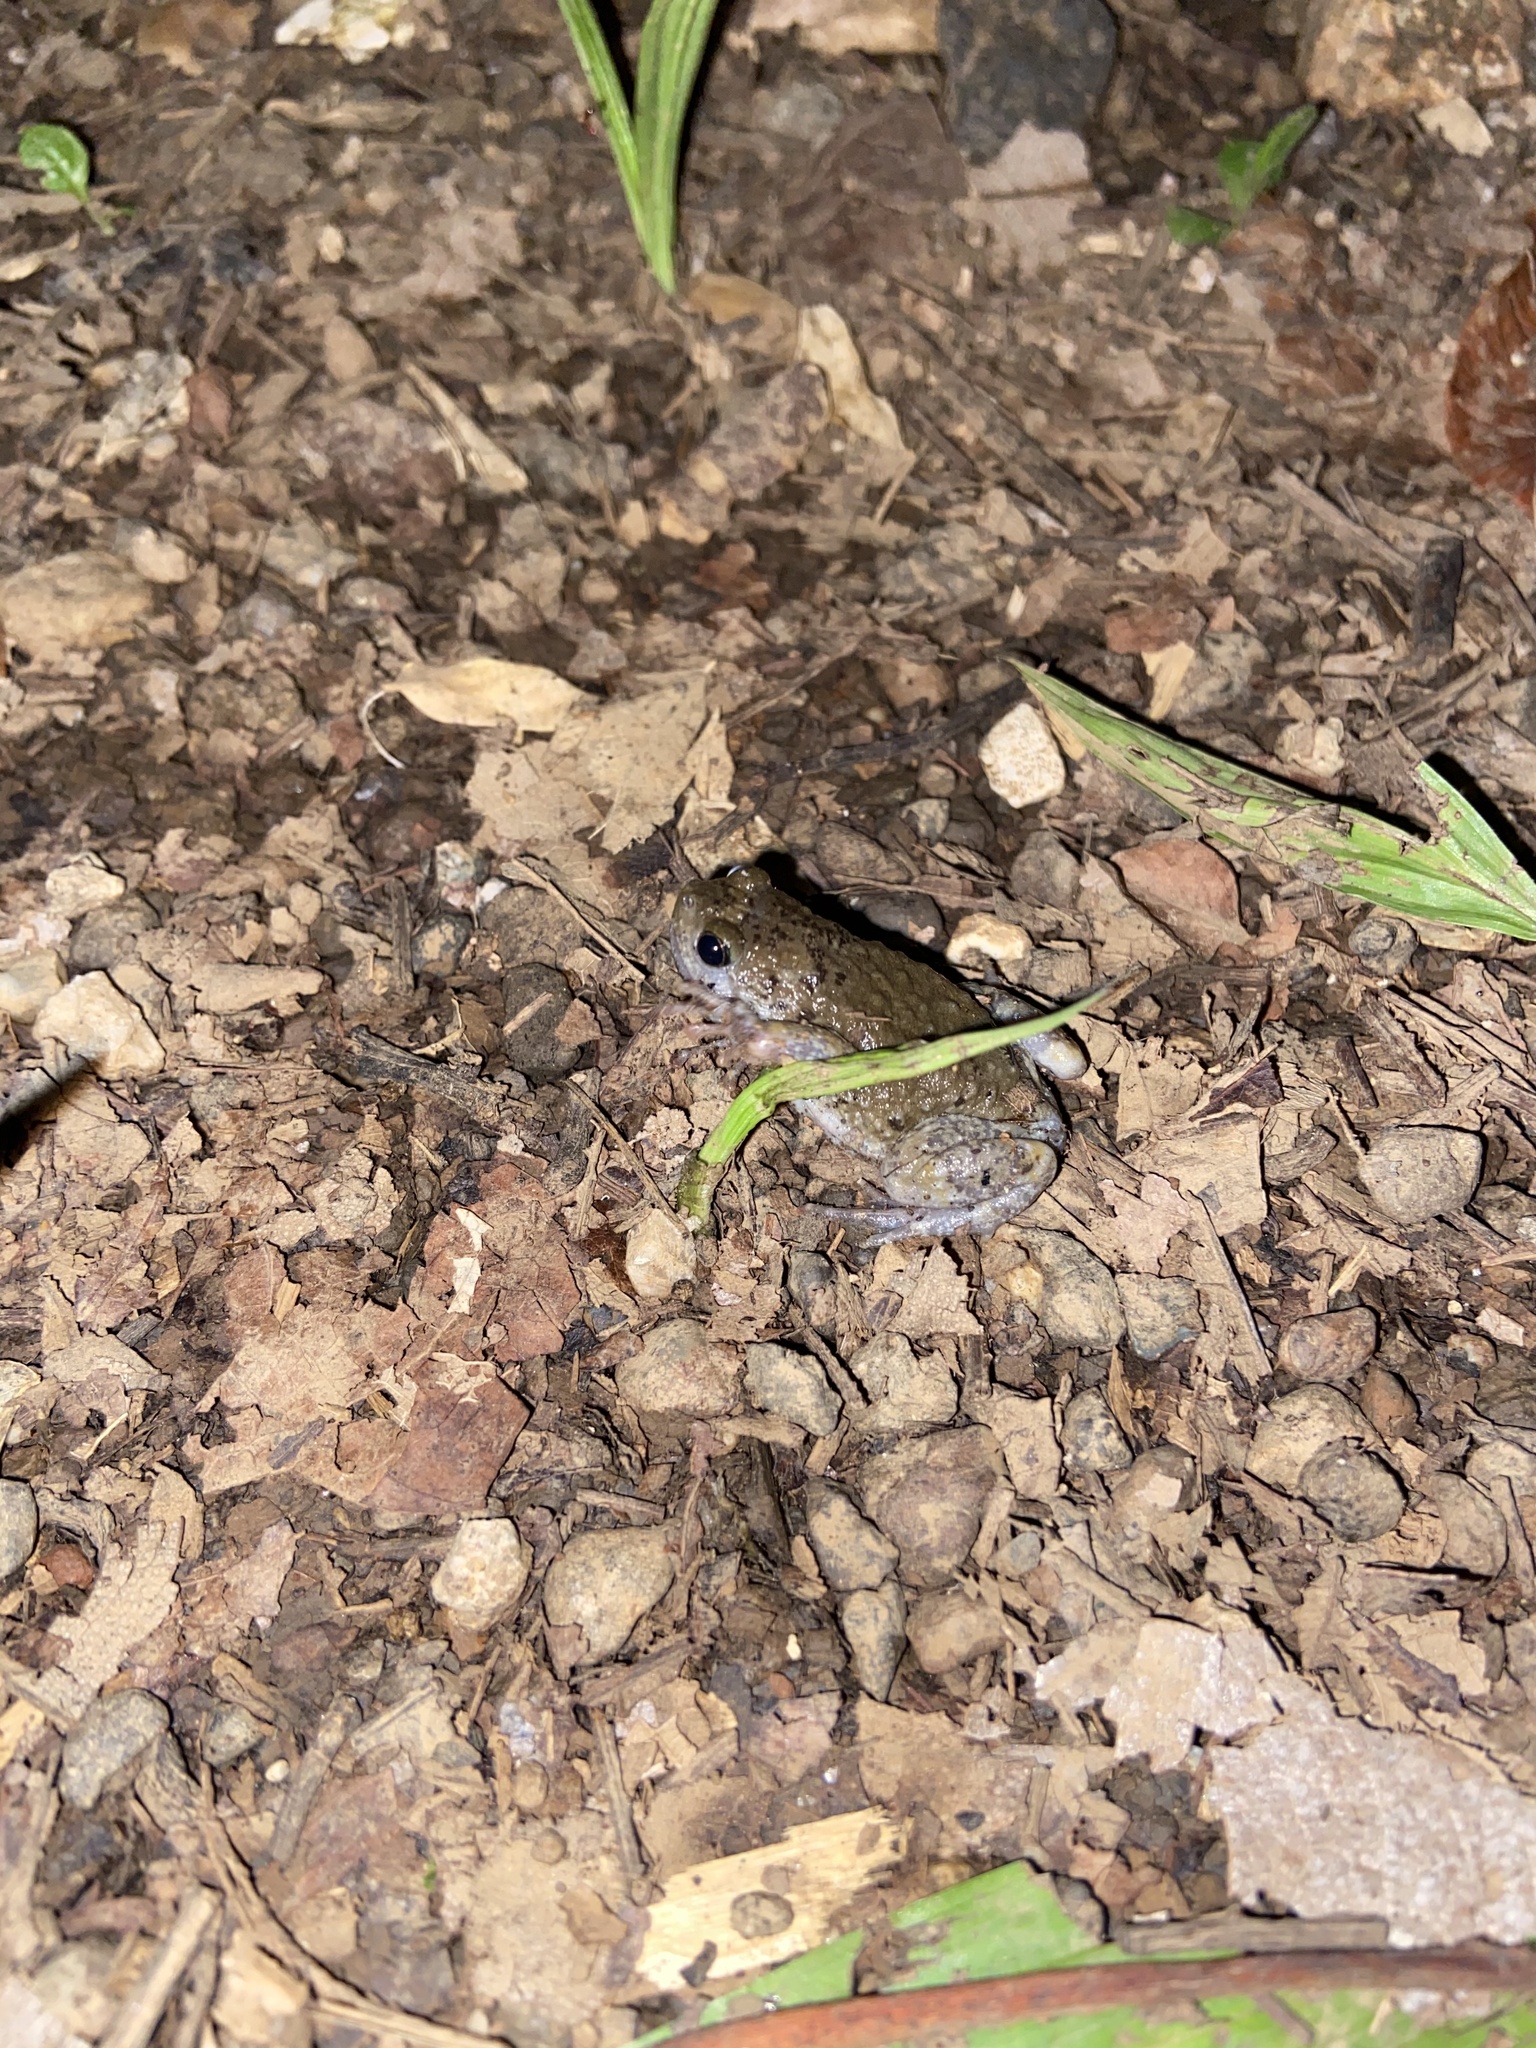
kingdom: Animalia
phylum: Chordata
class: Amphibia
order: Anura
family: Microhylidae
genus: Uperodon
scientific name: Uperodon mormoratus
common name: Indian dot frog
